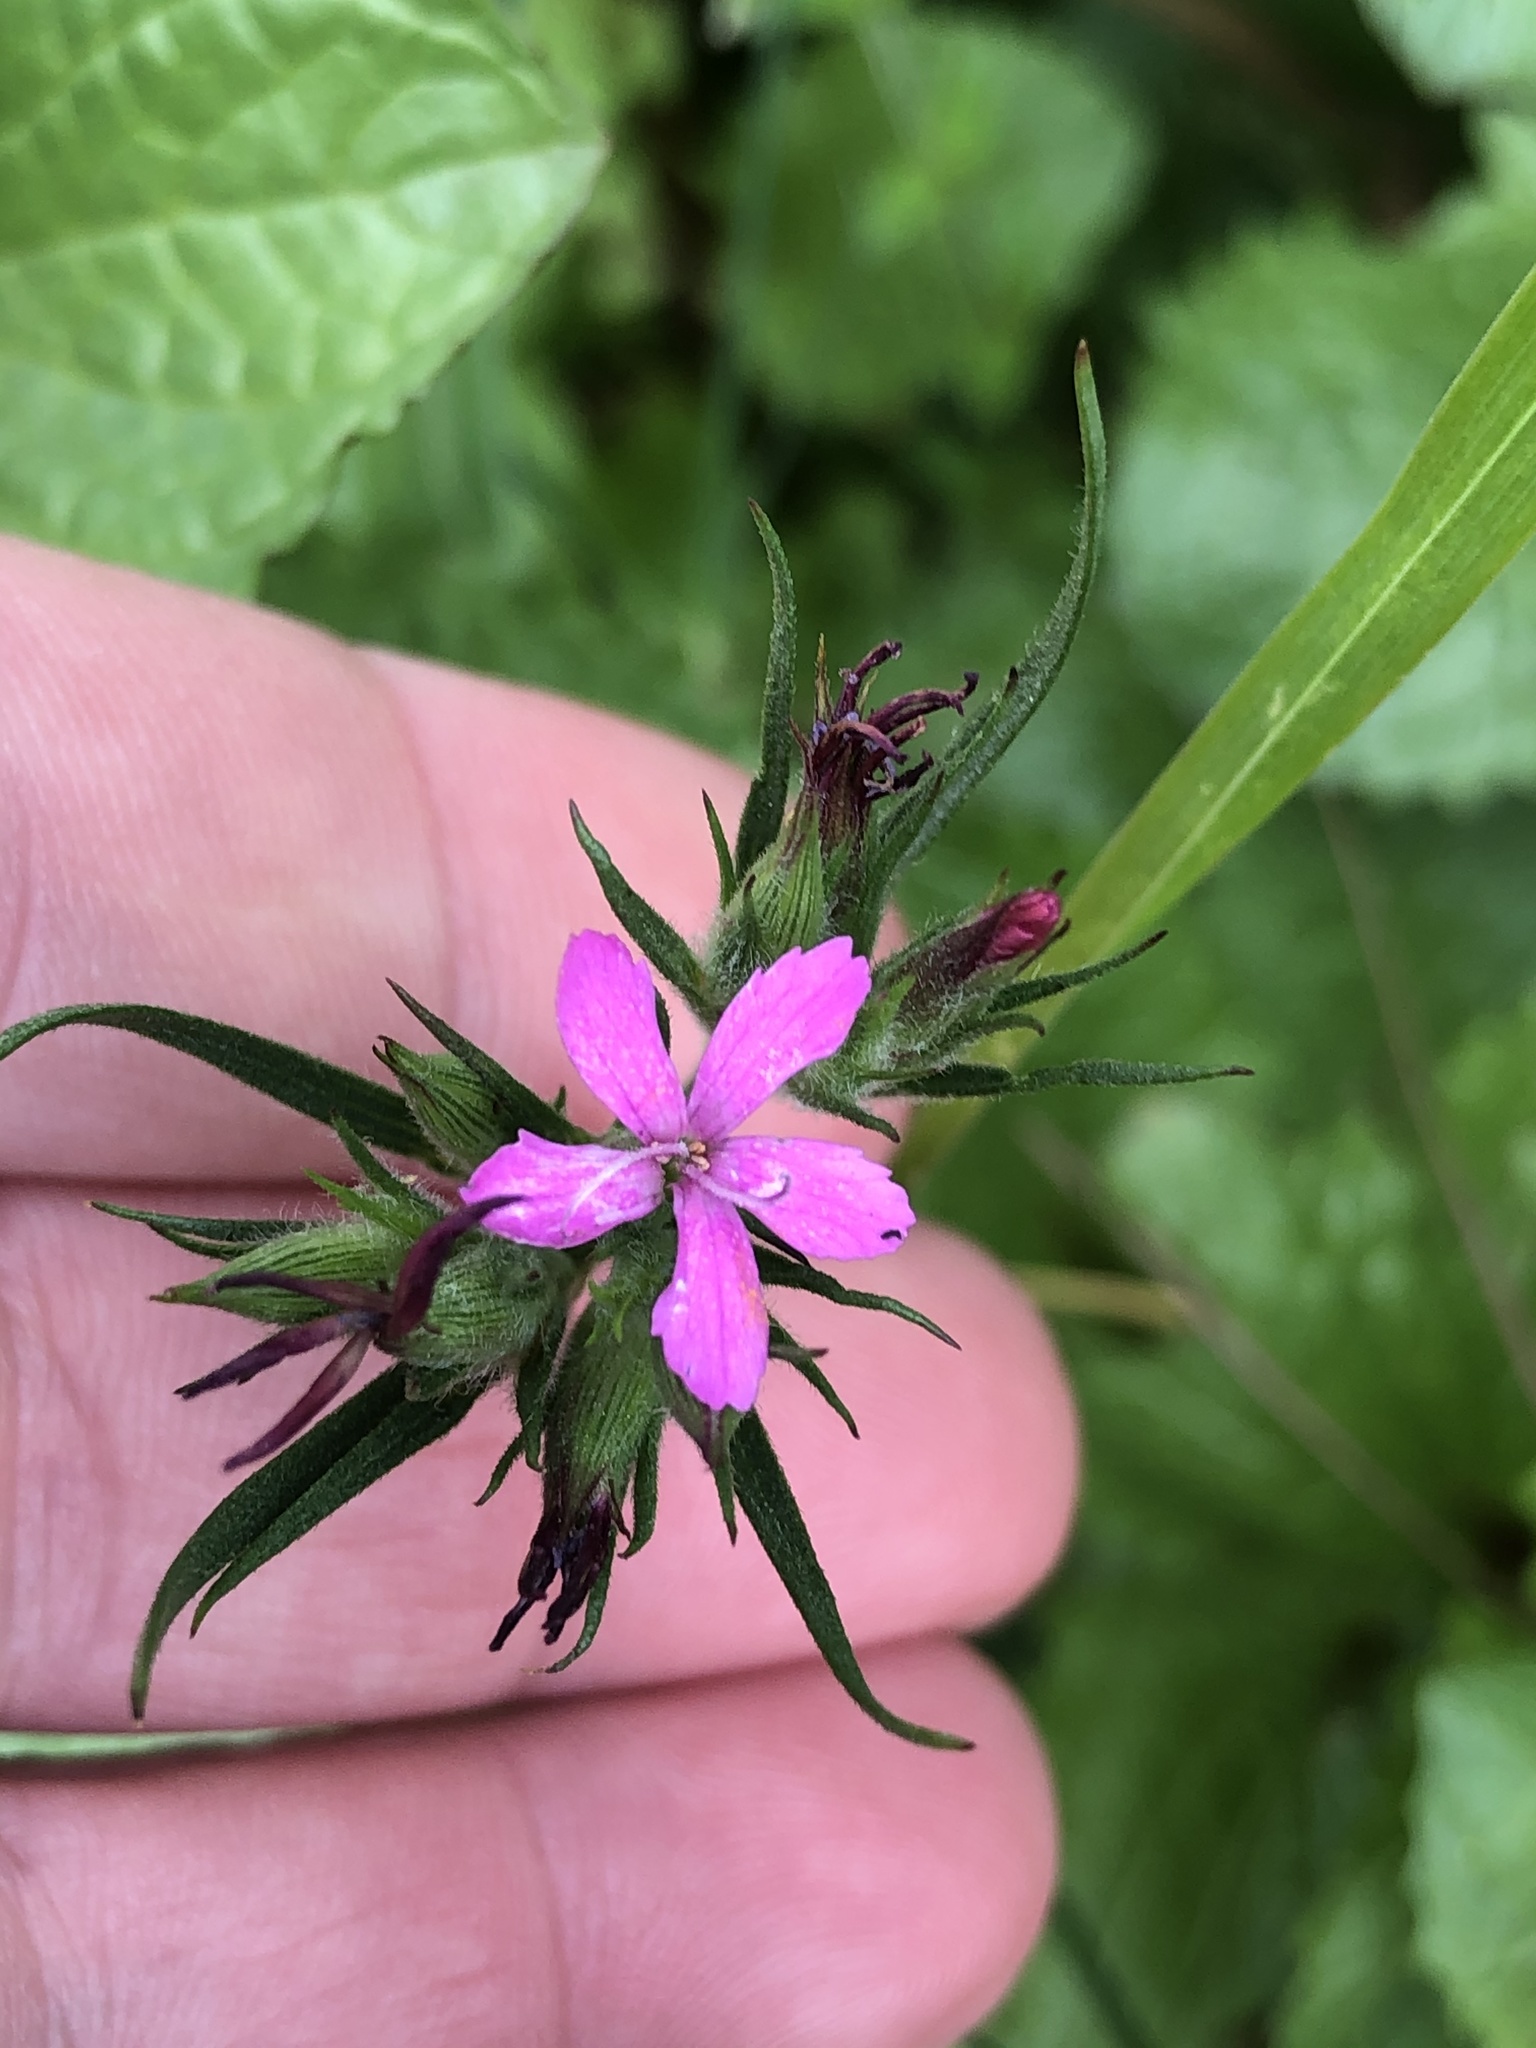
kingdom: Plantae
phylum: Tracheophyta
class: Magnoliopsida
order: Caryophyllales
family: Caryophyllaceae
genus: Dianthus
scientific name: Dianthus armeria
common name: Deptford pink
